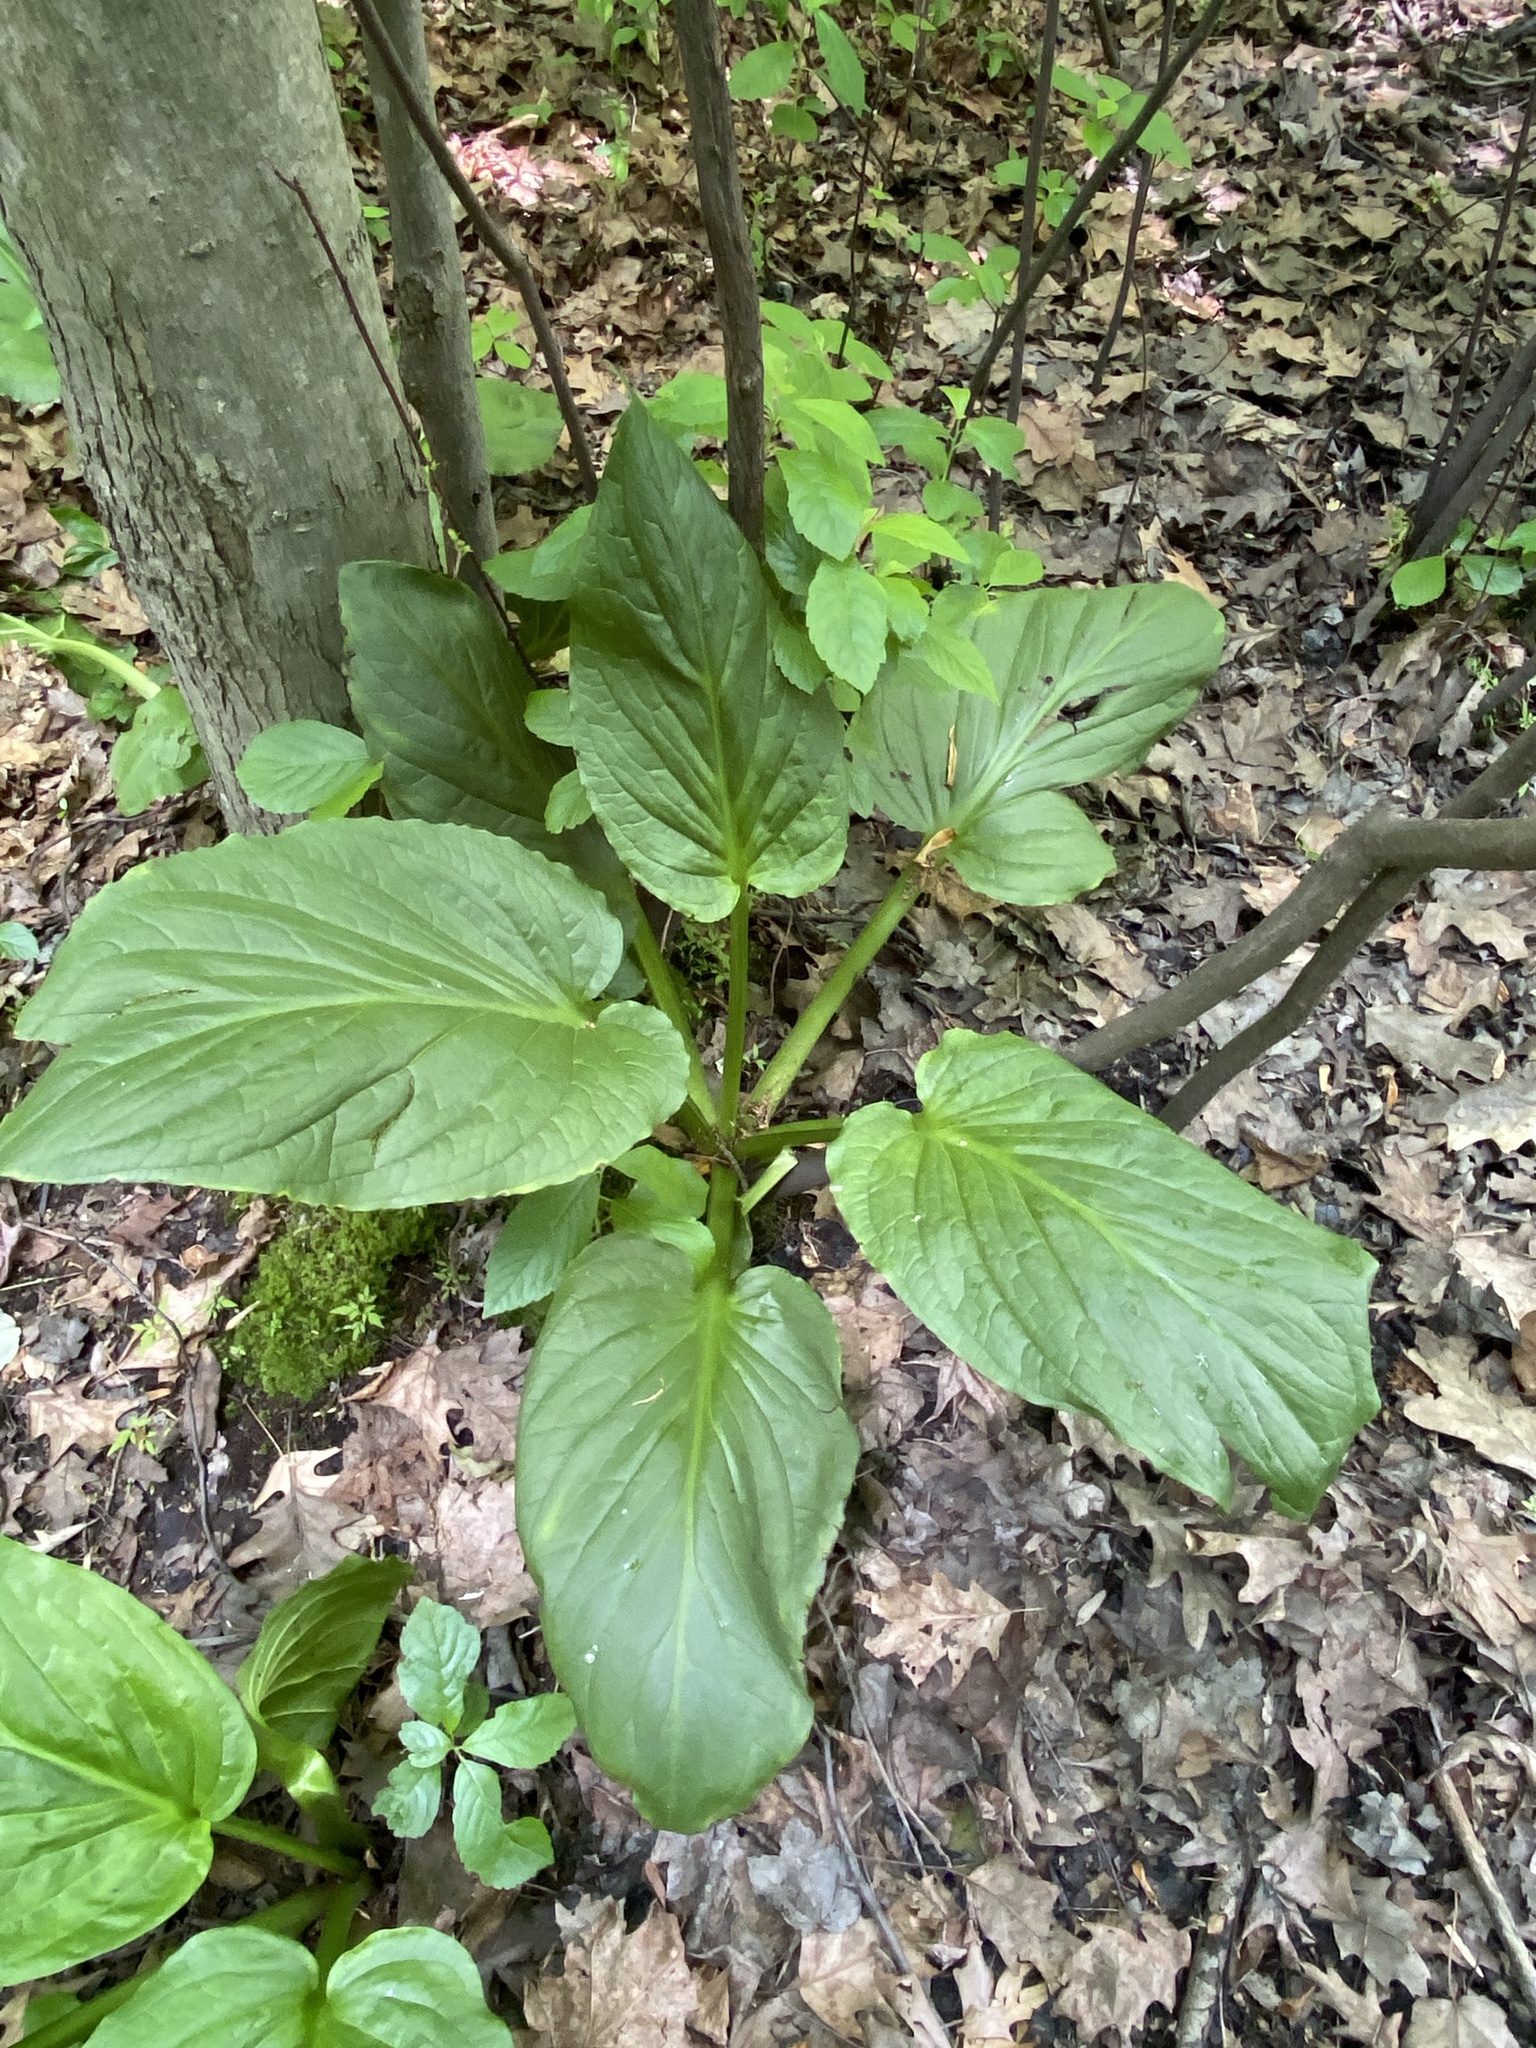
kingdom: Plantae
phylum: Tracheophyta
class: Liliopsida
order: Alismatales
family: Araceae
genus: Symplocarpus
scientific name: Symplocarpus foetidus
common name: Eastern skunk cabbage
